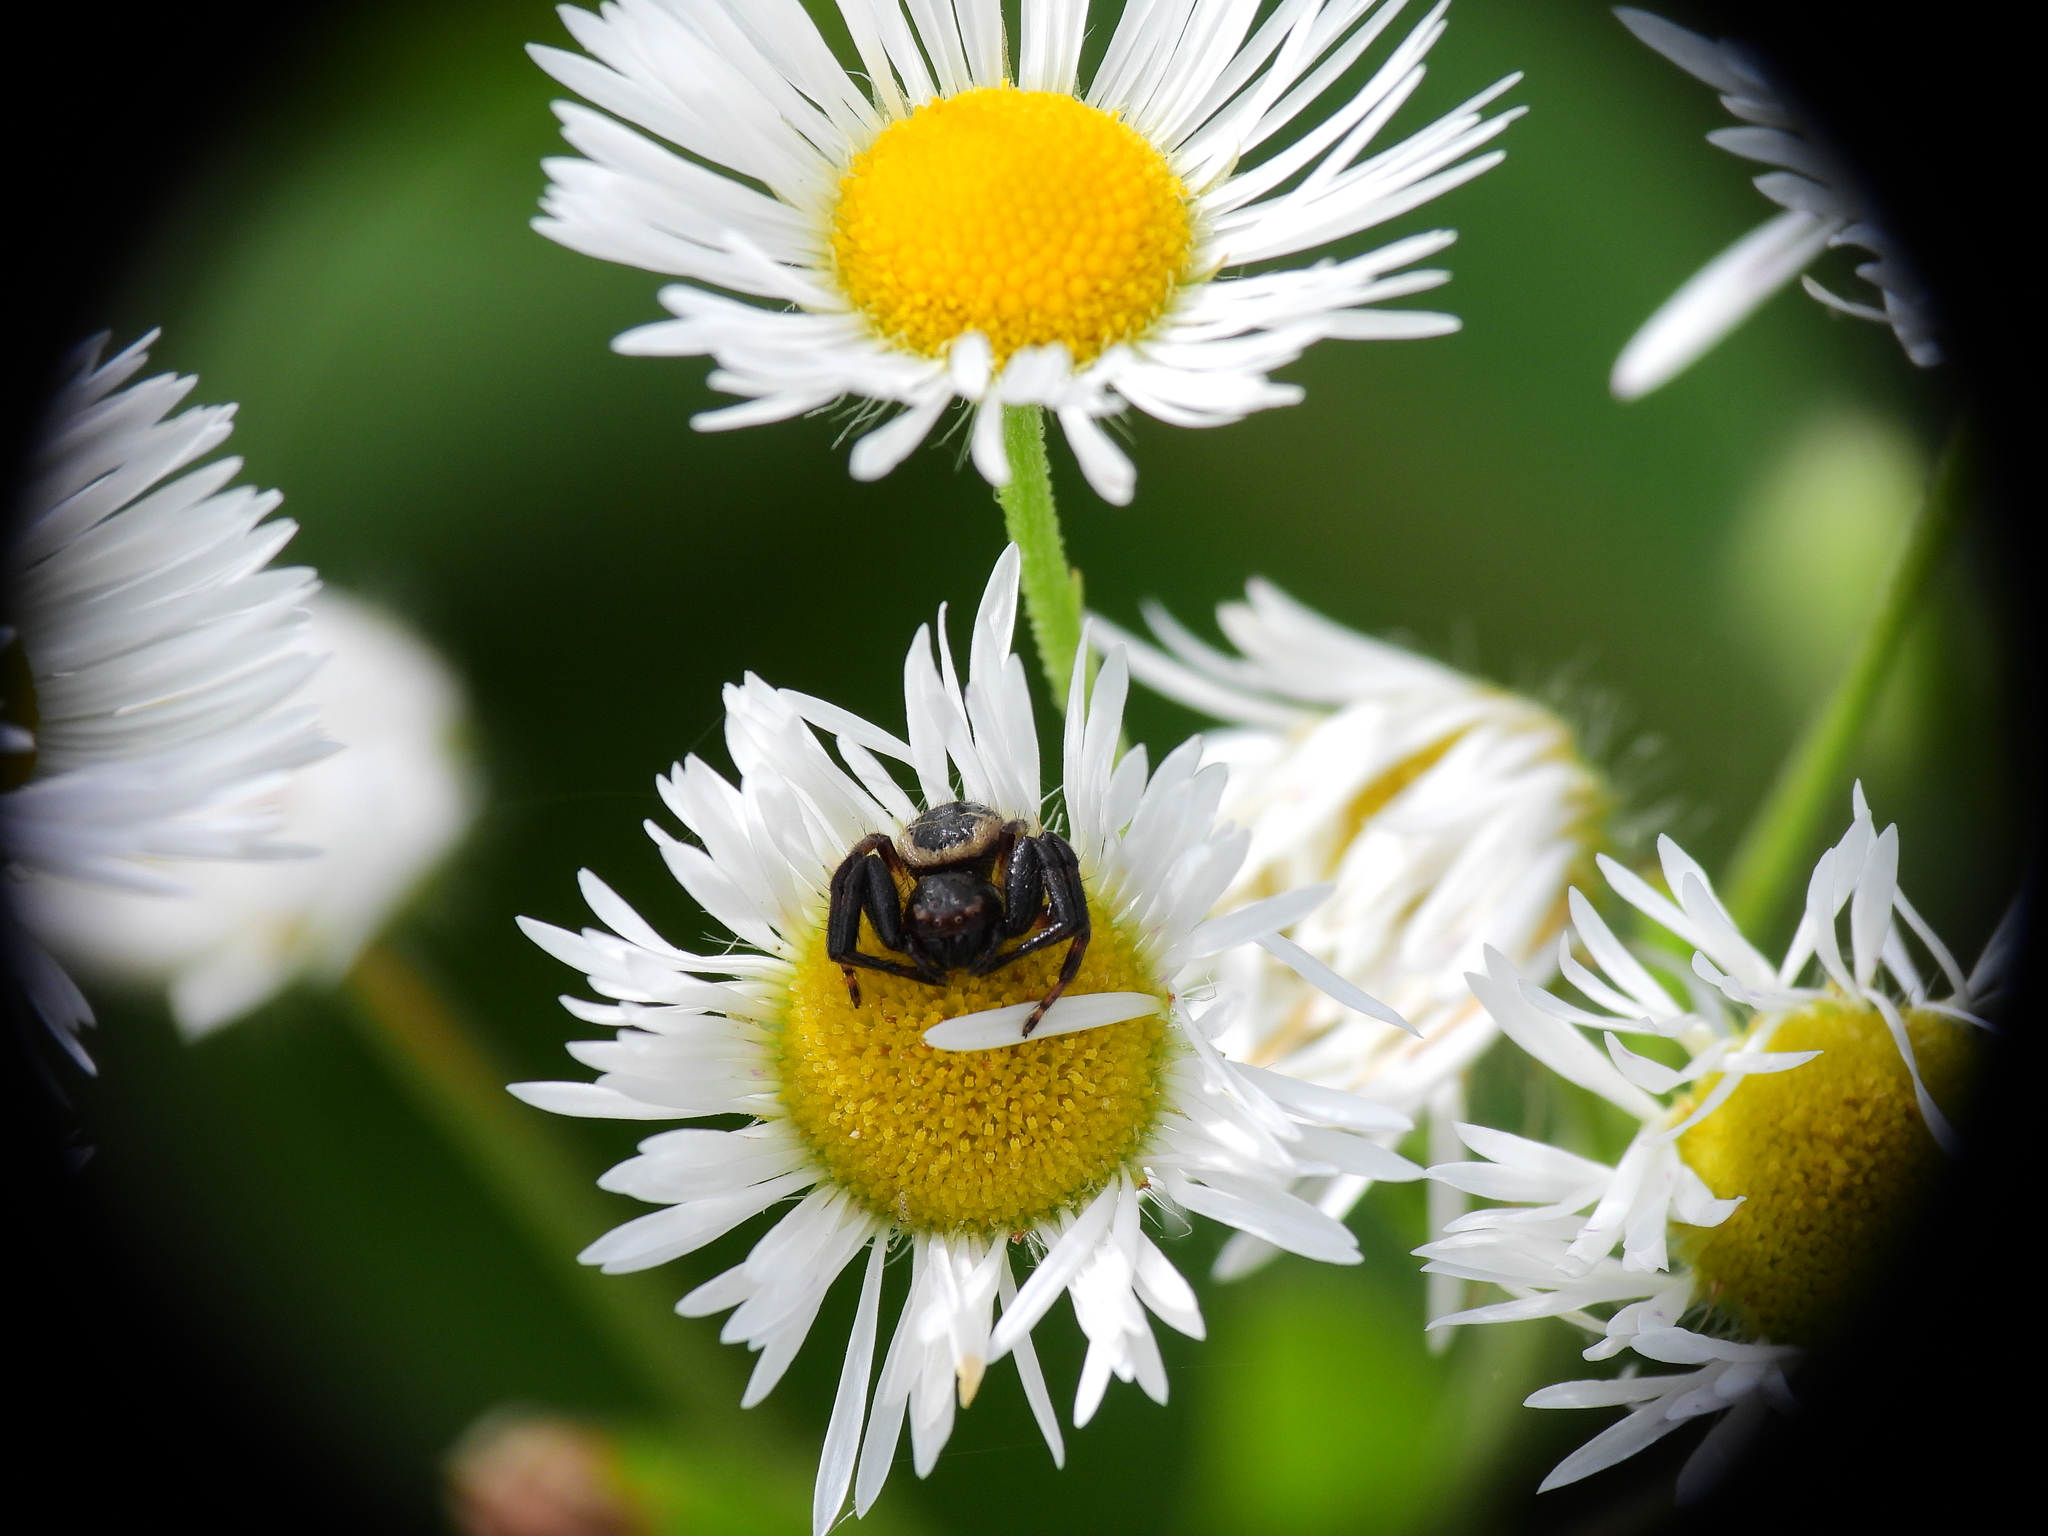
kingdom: Animalia
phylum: Arthropoda
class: Arachnida
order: Araneae
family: Thomisidae
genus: Synema
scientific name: Synema globosum
